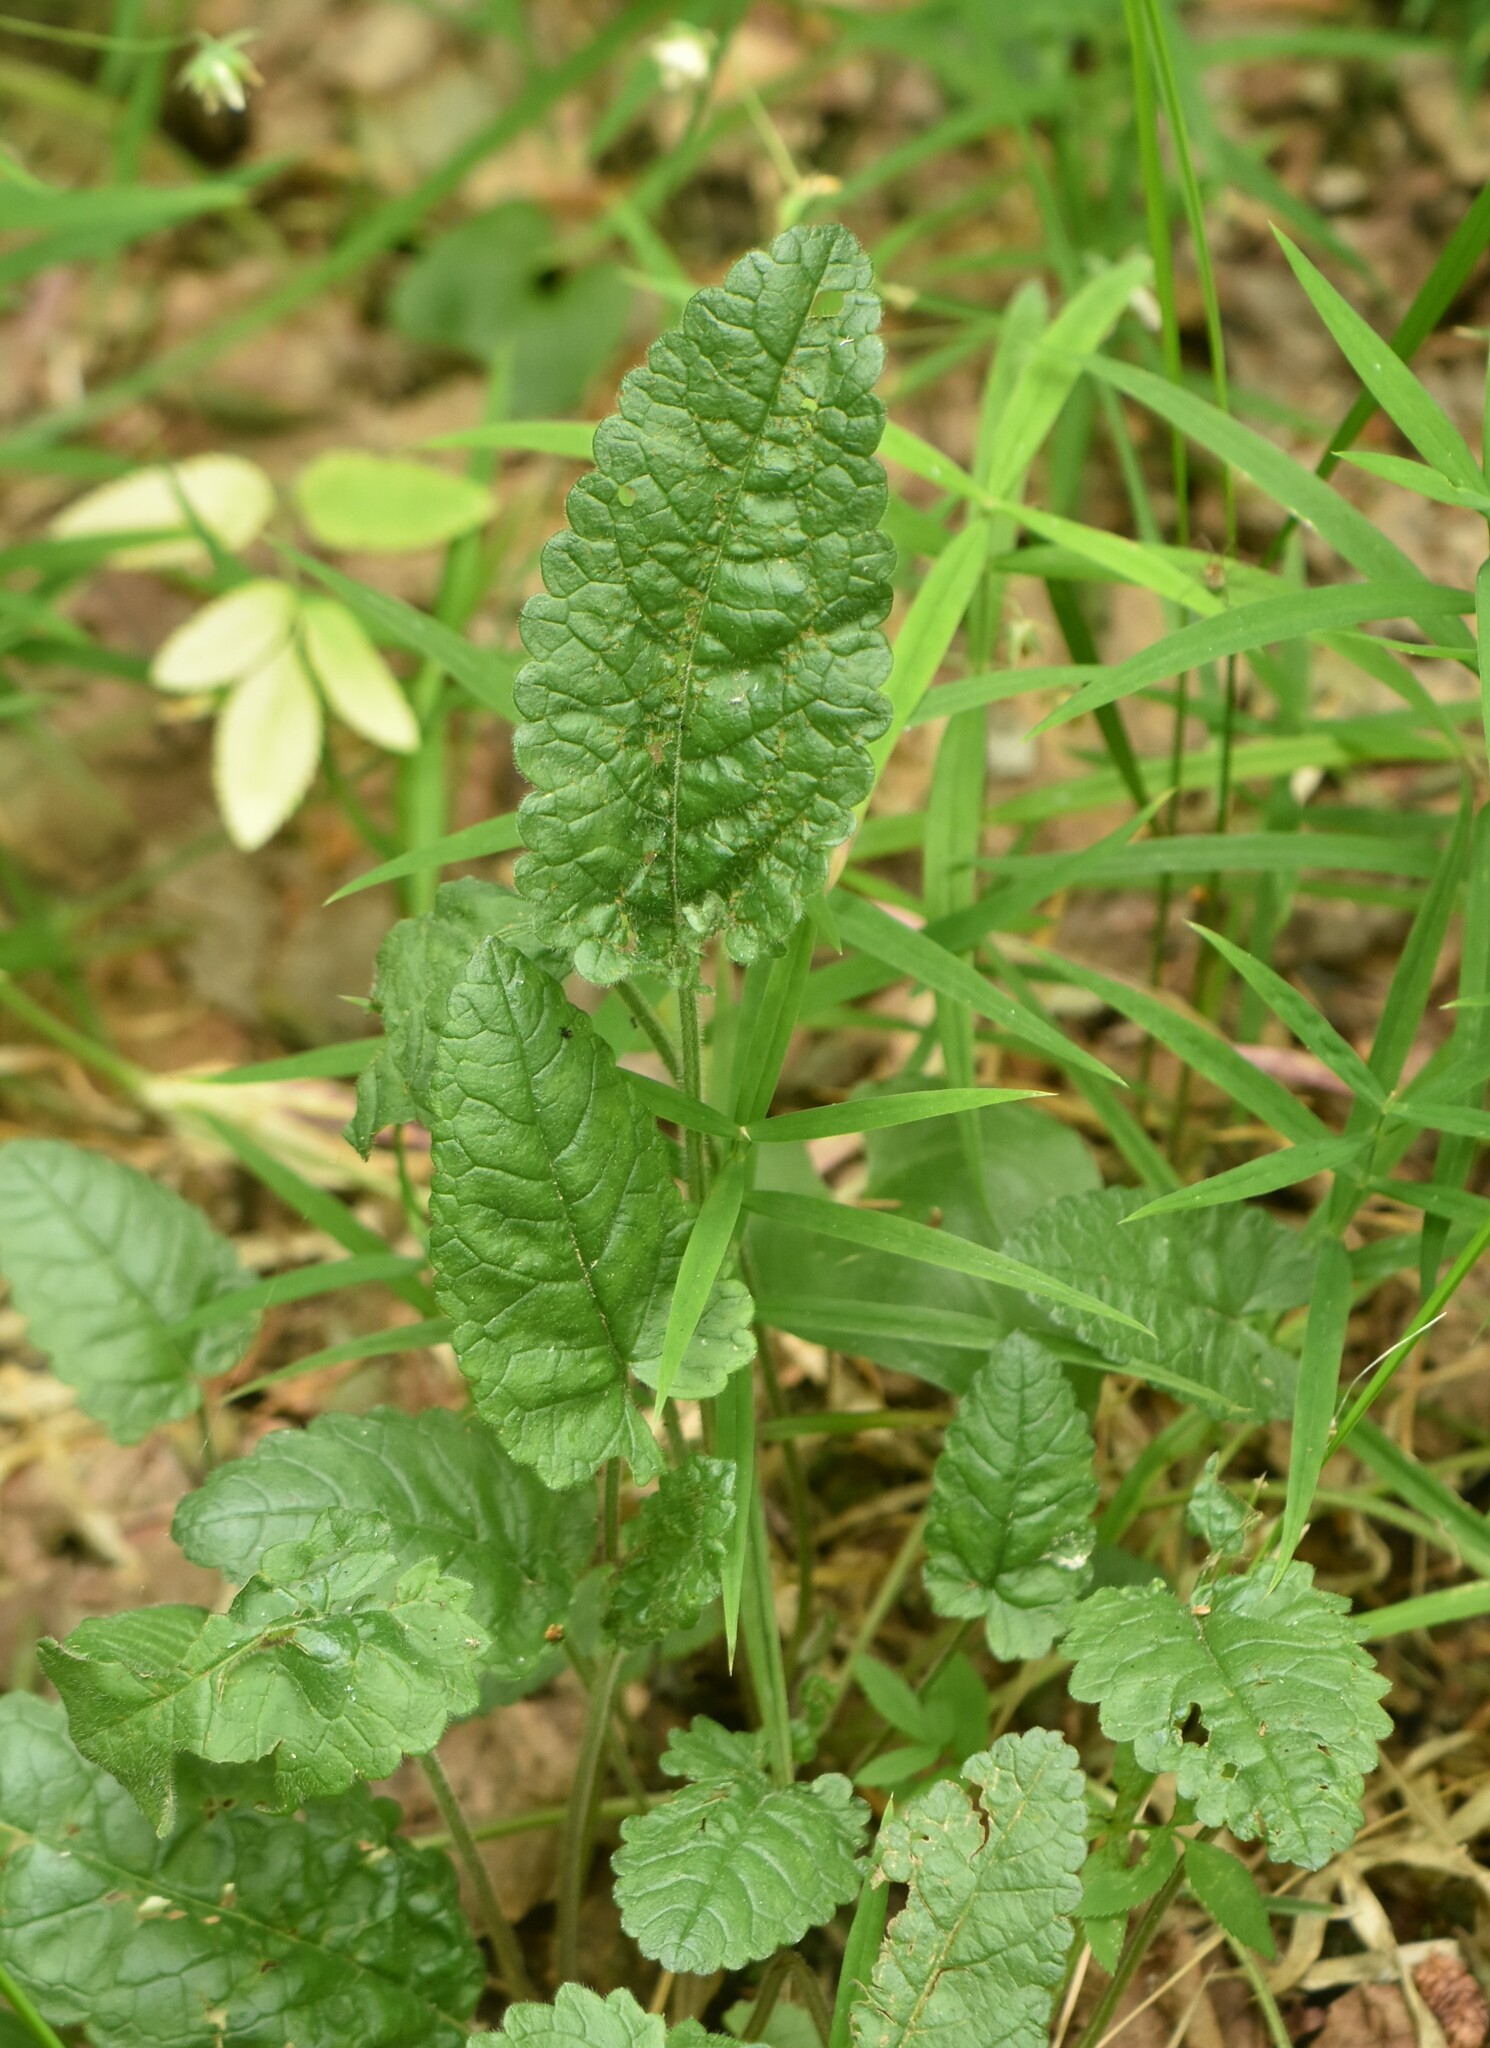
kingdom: Plantae
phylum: Tracheophyta
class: Magnoliopsida
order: Lamiales
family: Lamiaceae
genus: Betonica
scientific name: Betonica officinalis
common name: Bishop's-wort
